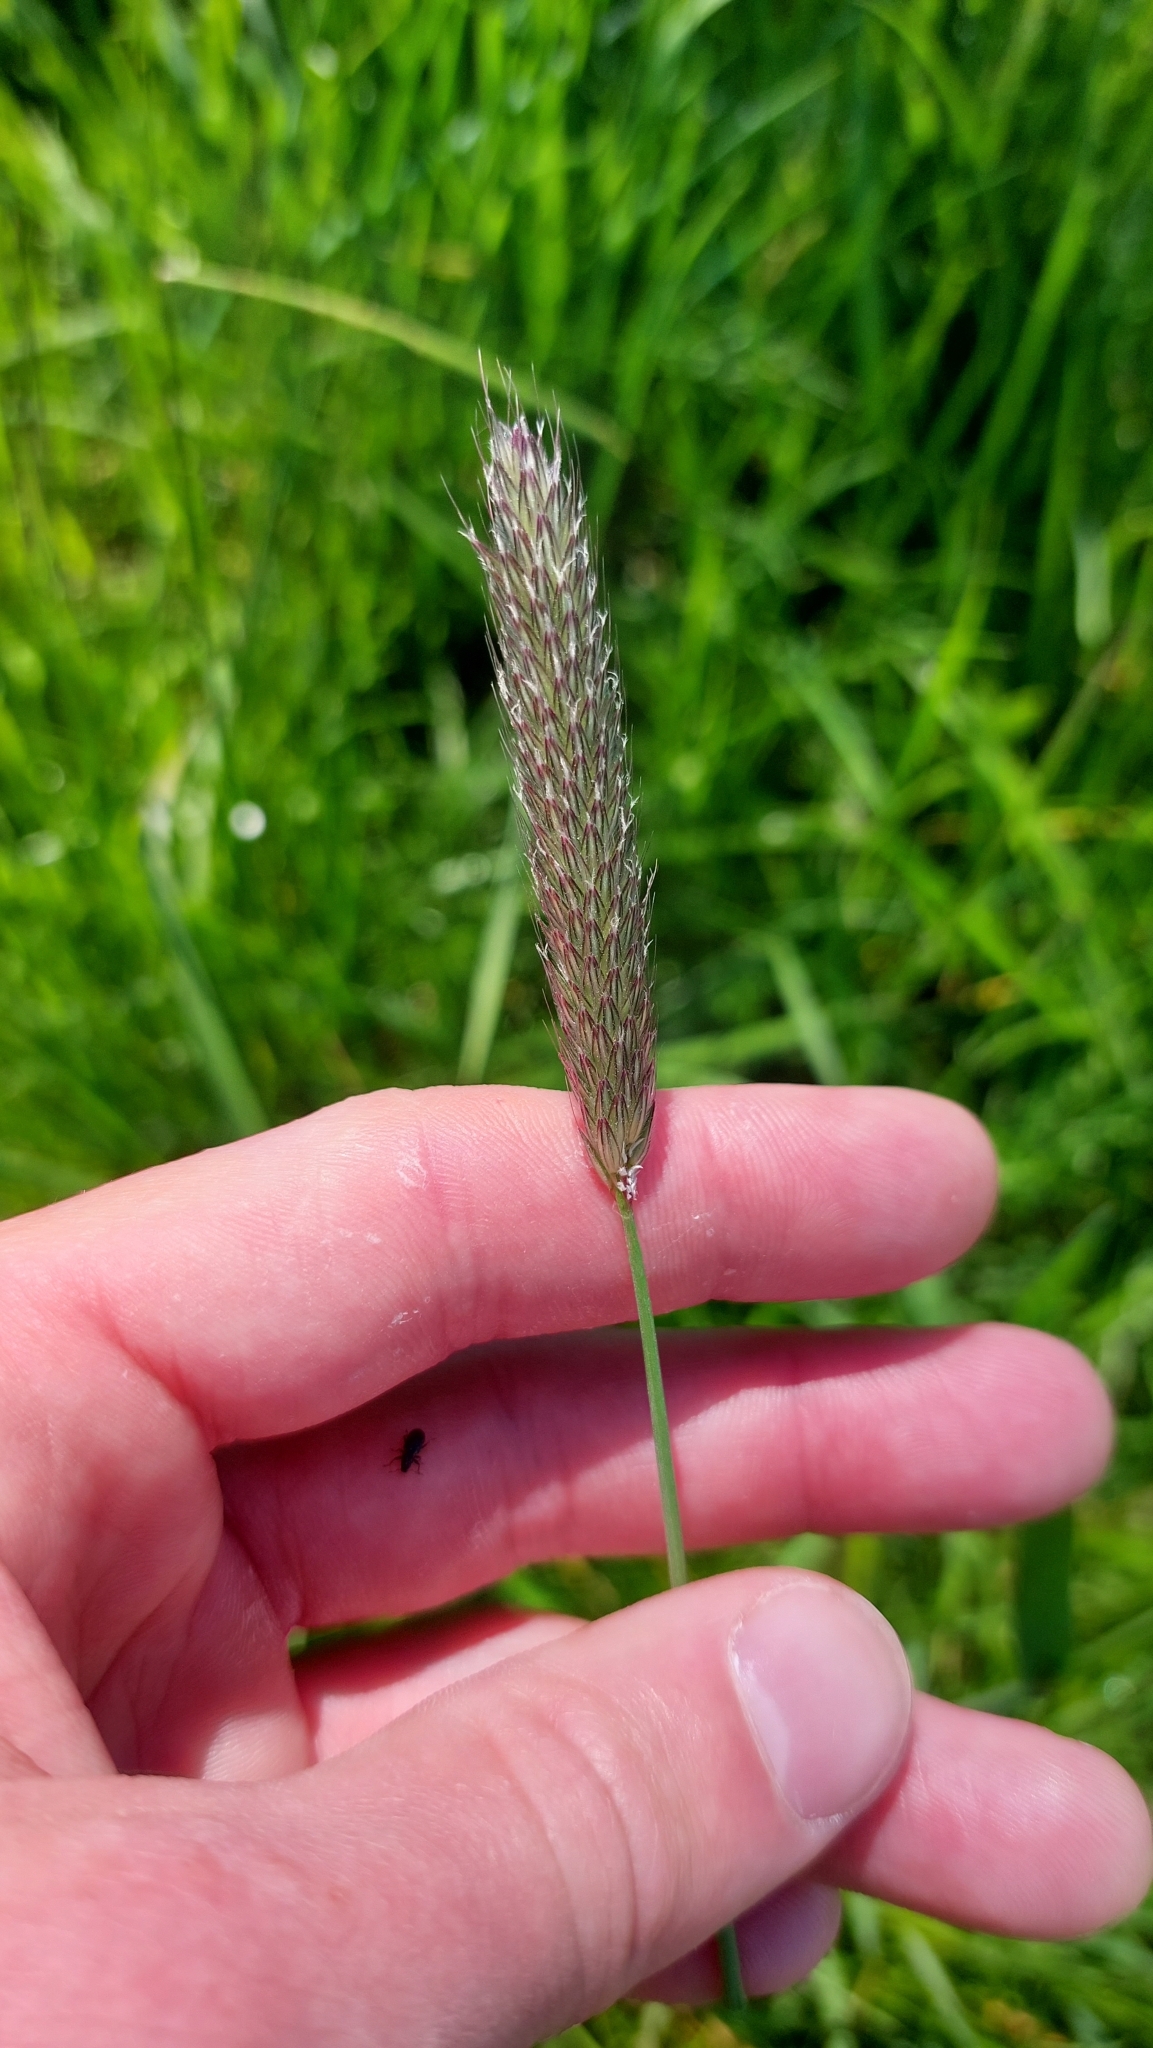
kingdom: Plantae
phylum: Tracheophyta
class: Liliopsida
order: Poales
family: Poaceae
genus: Alopecurus
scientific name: Alopecurus pratensis
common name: Meadow foxtail
